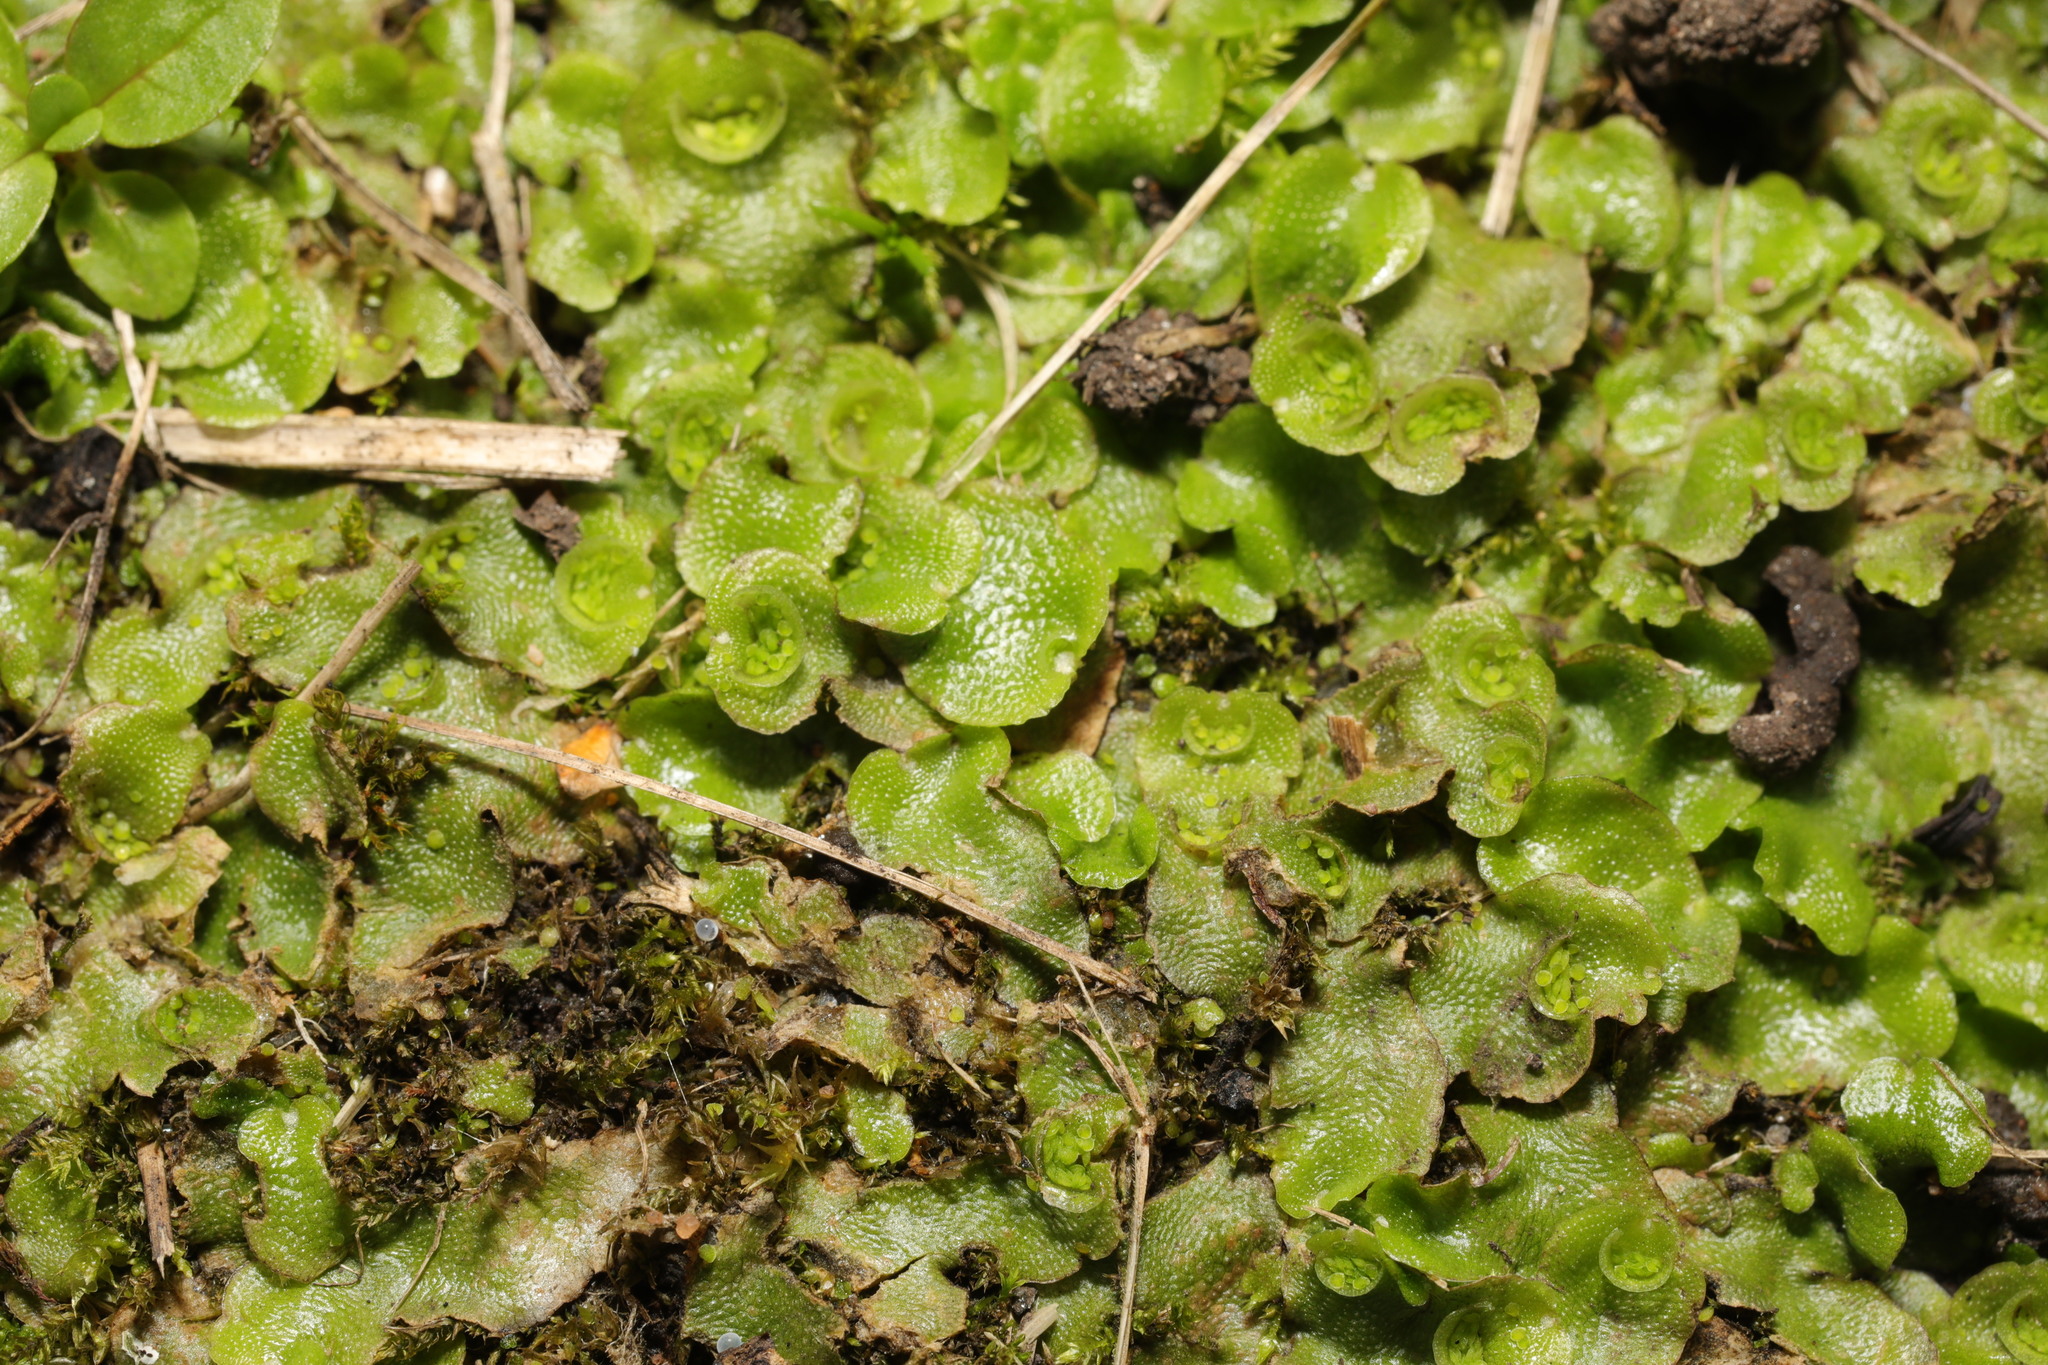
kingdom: Plantae
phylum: Marchantiophyta
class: Marchantiopsida
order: Lunulariales
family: Lunulariaceae
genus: Lunularia
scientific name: Lunularia cruciata
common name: Crescent-cup liverwort
